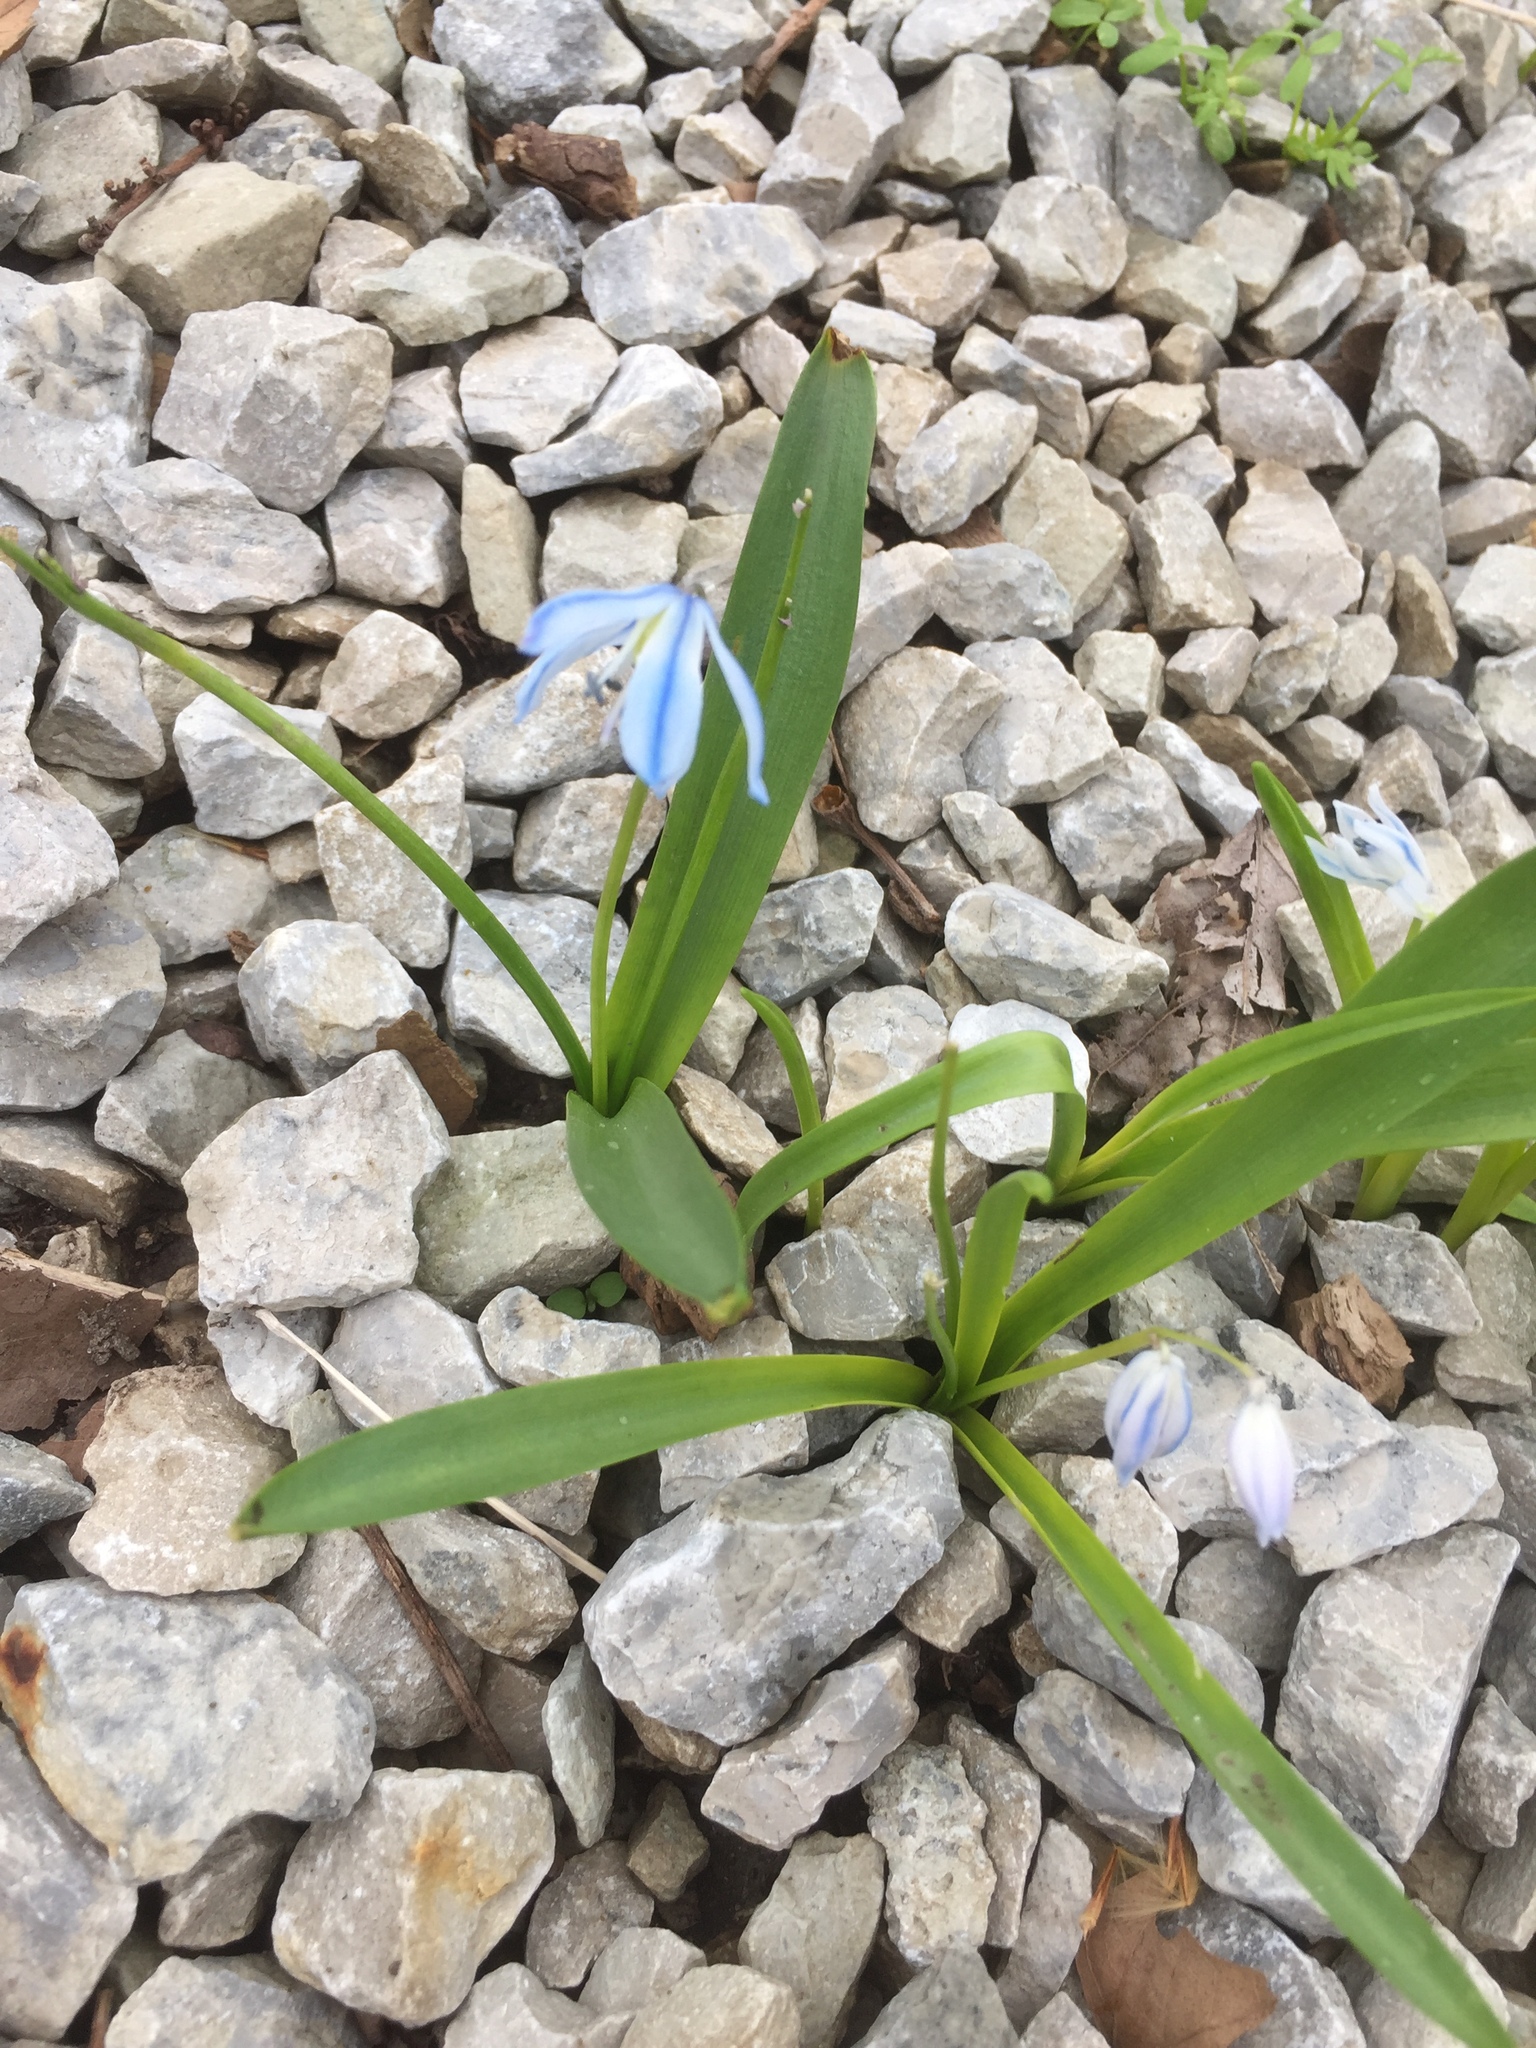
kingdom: Plantae
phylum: Tracheophyta
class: Liliopsida
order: Asparagales
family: Asparagaceae
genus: Scilla
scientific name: Scilla siberica
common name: Siberian squill
